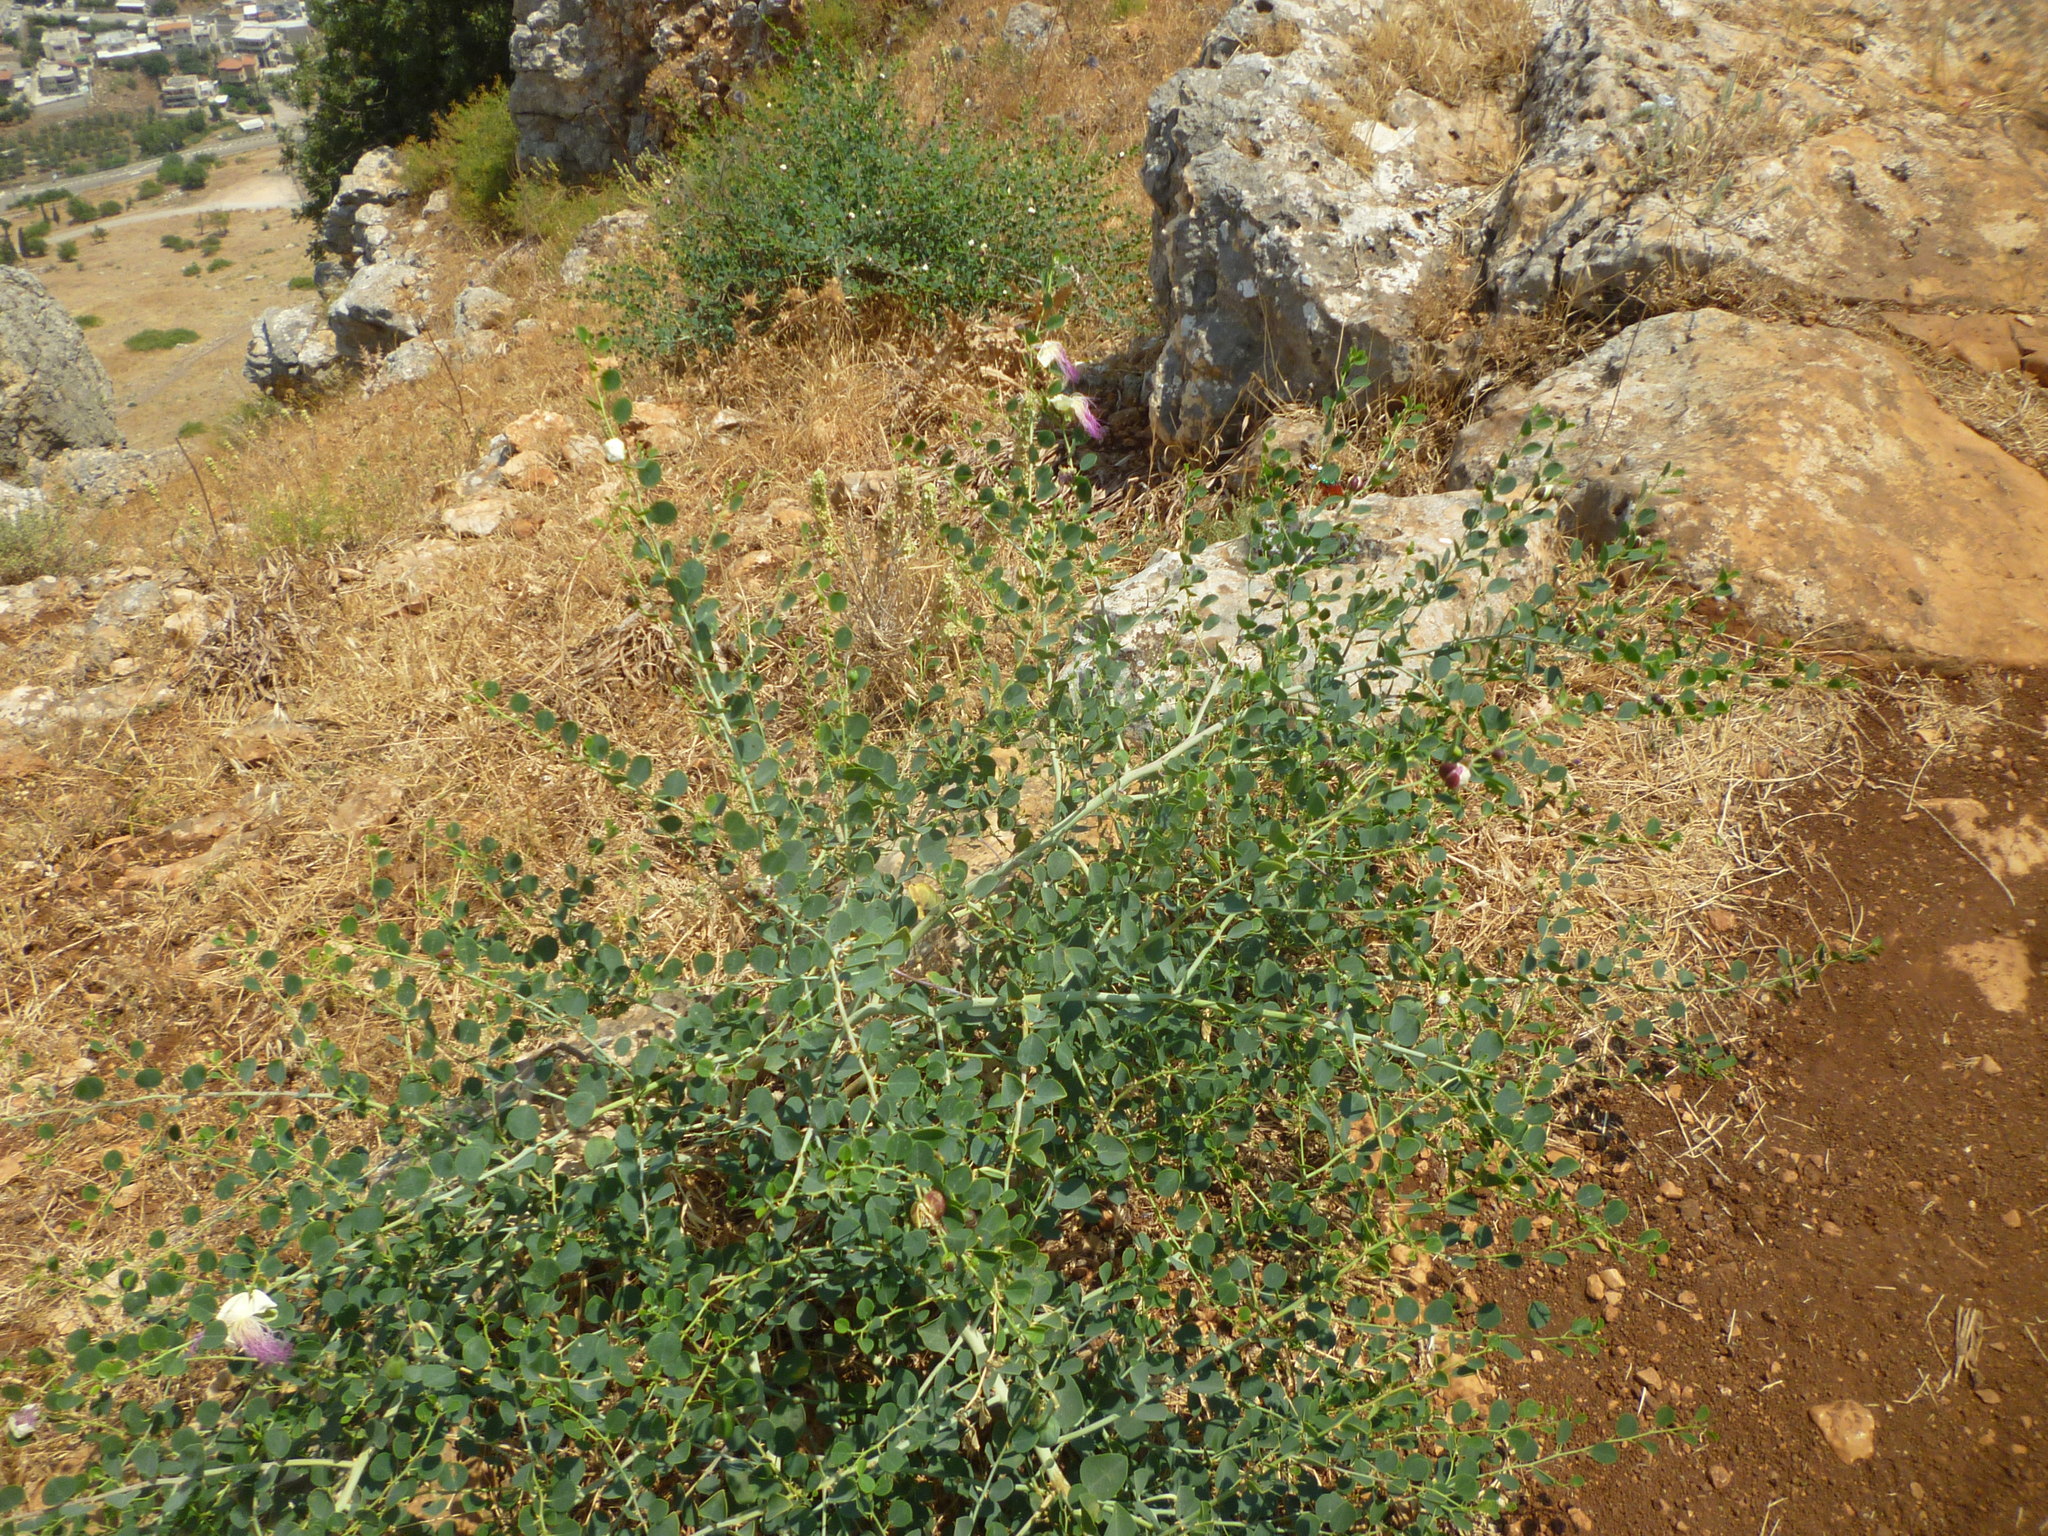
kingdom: Plantae
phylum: Tracheophyta
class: Magnoliopsida
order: Brassicales
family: Capparaceae
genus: Capparis
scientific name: Capparis spinosa
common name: Caper
